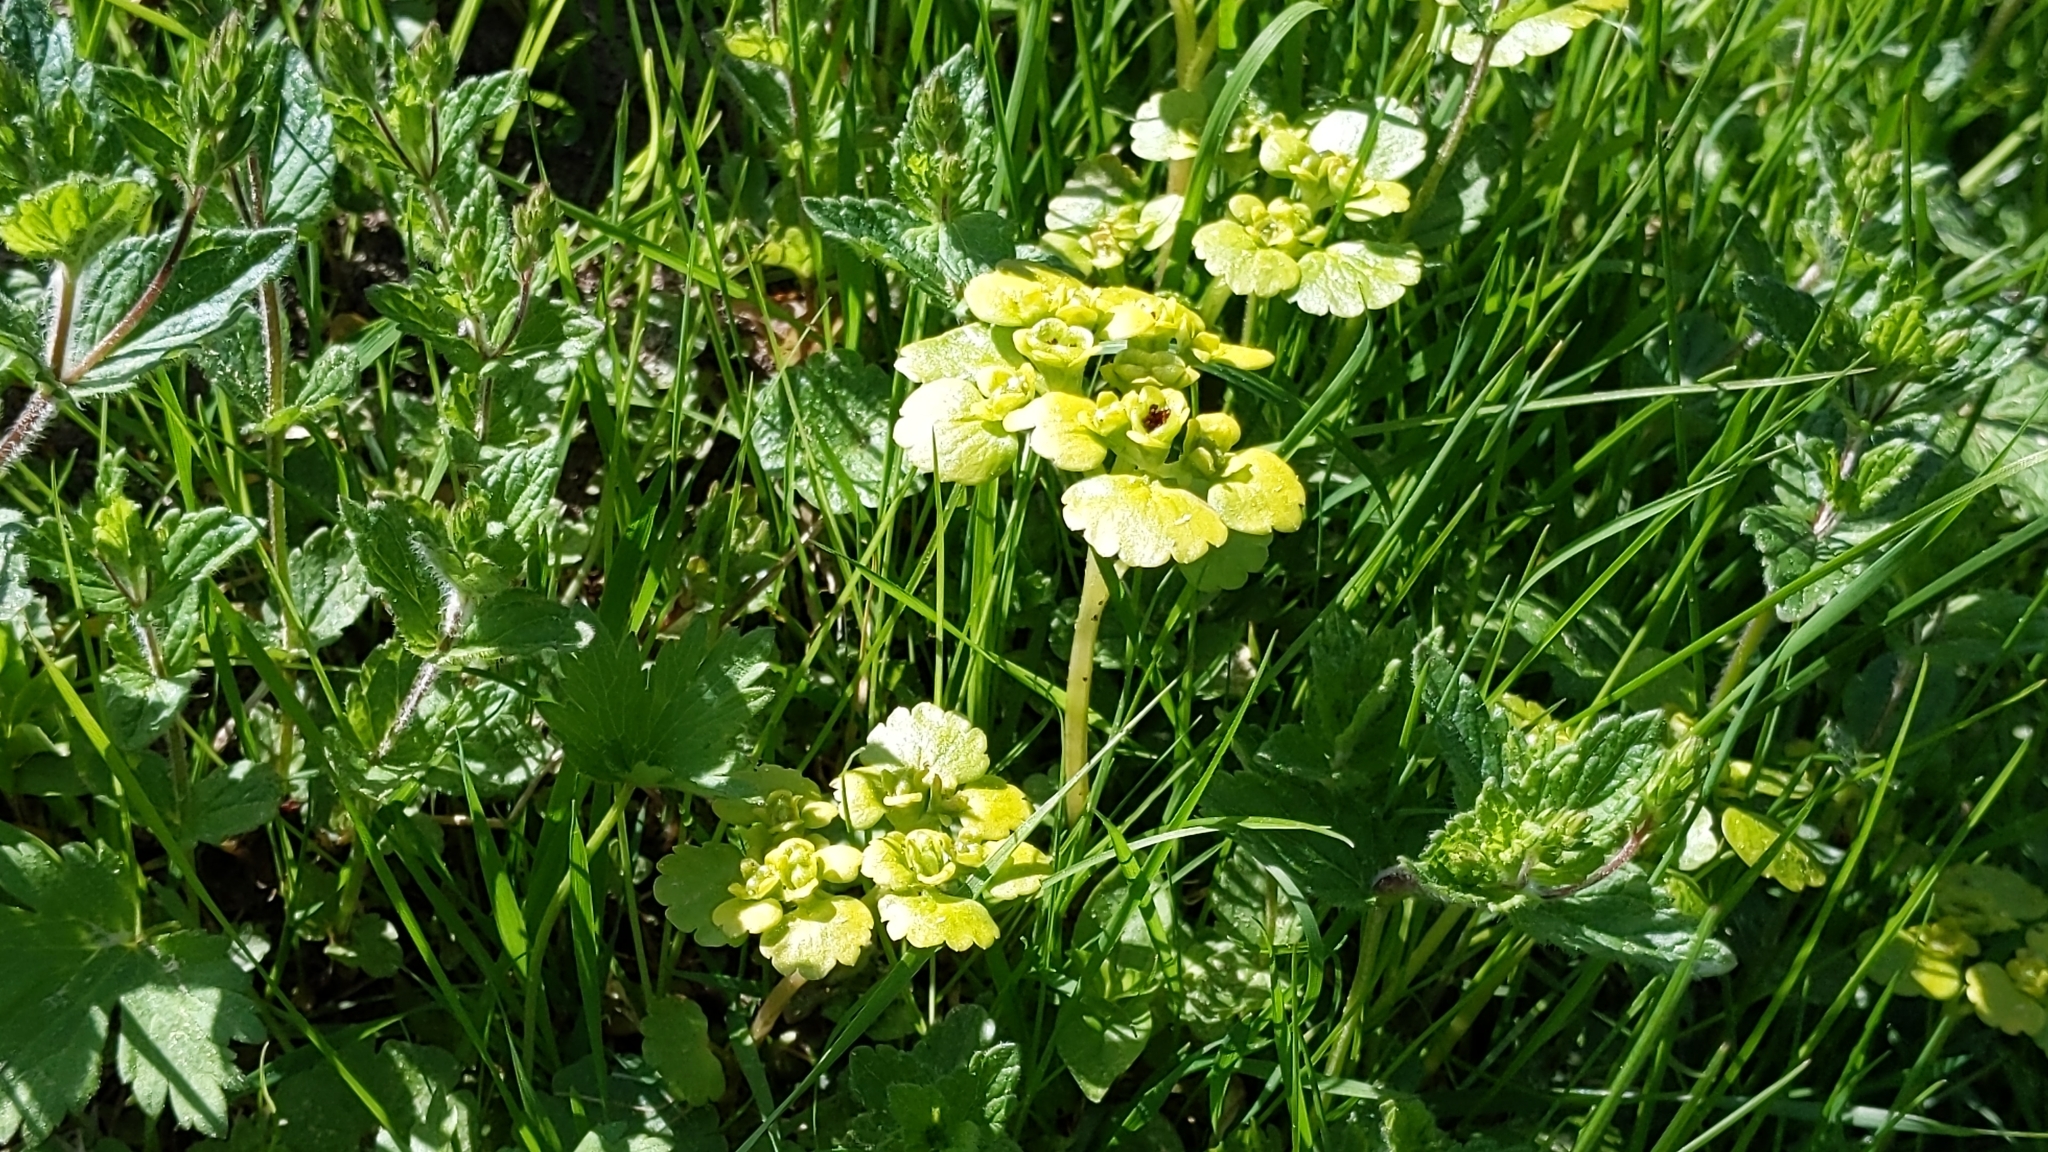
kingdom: Plantae
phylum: Tracheophyta
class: Magnoliopsida
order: Saxifragales
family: Saxifragaceae
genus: Chrysosplenium
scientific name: Chrysosplenium alternifolium
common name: Alternate-leaved golden-saxifrage
